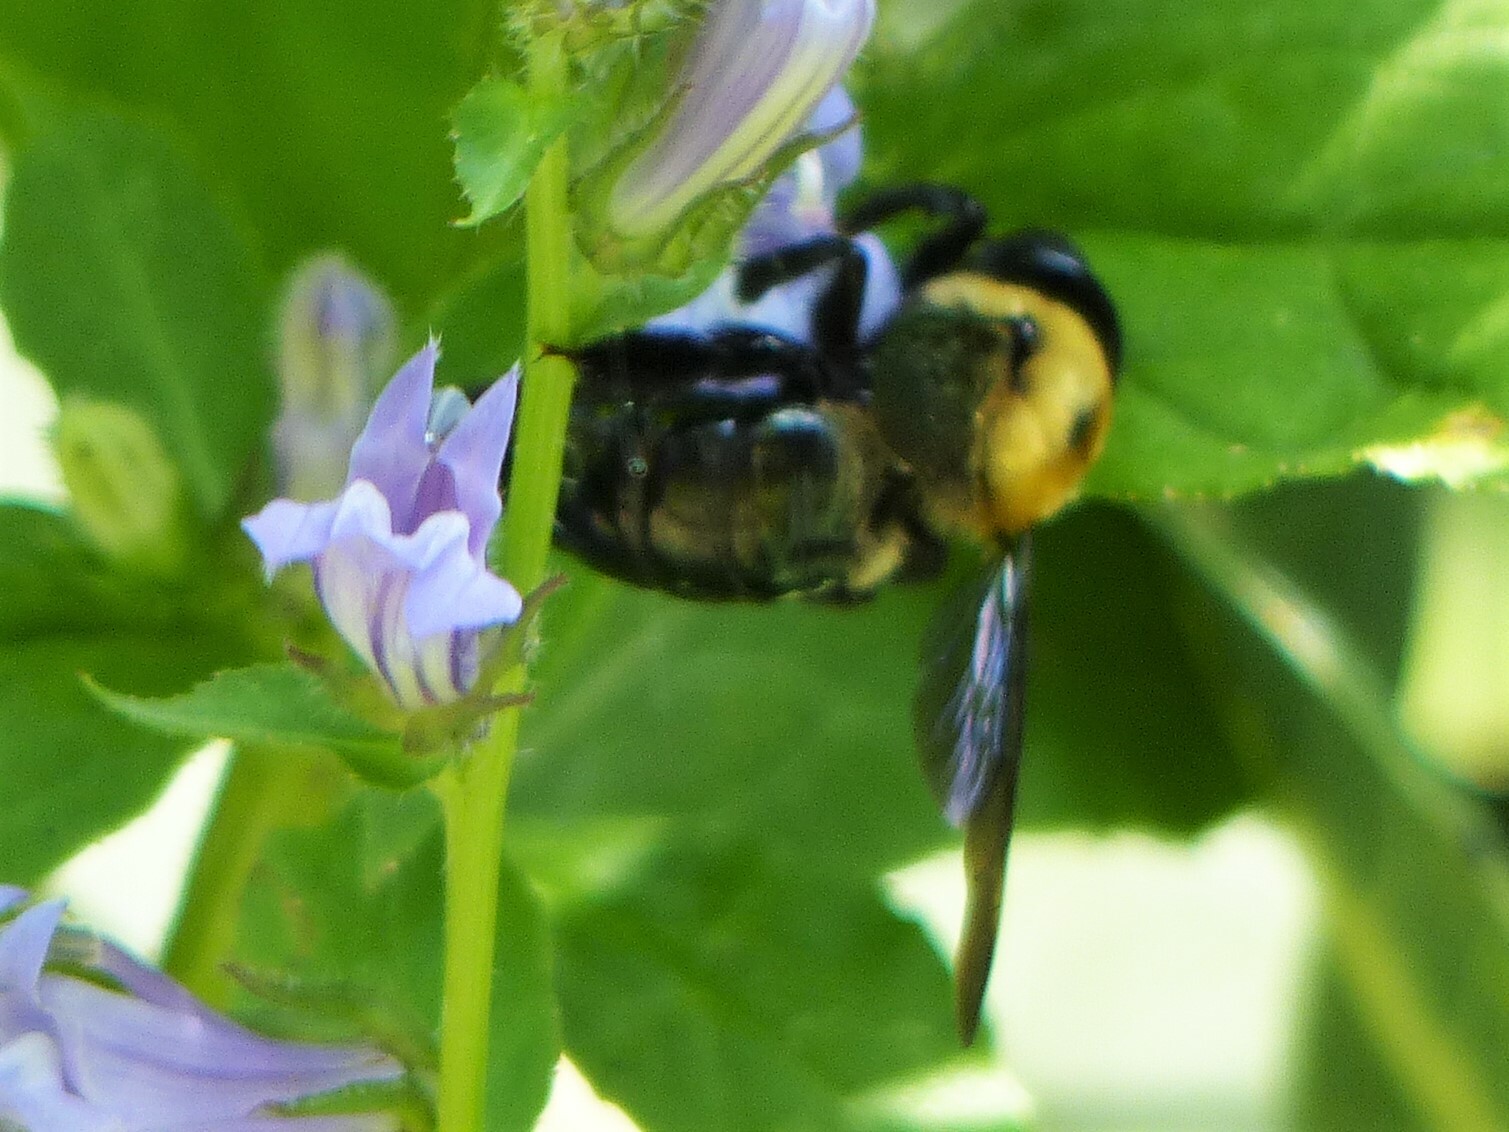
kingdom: Animalia
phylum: Arthropoda
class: Insecta
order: Hymenoptera
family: Apidae
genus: Xylocopa
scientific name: Xylocopa virginica
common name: Carpenter bee
